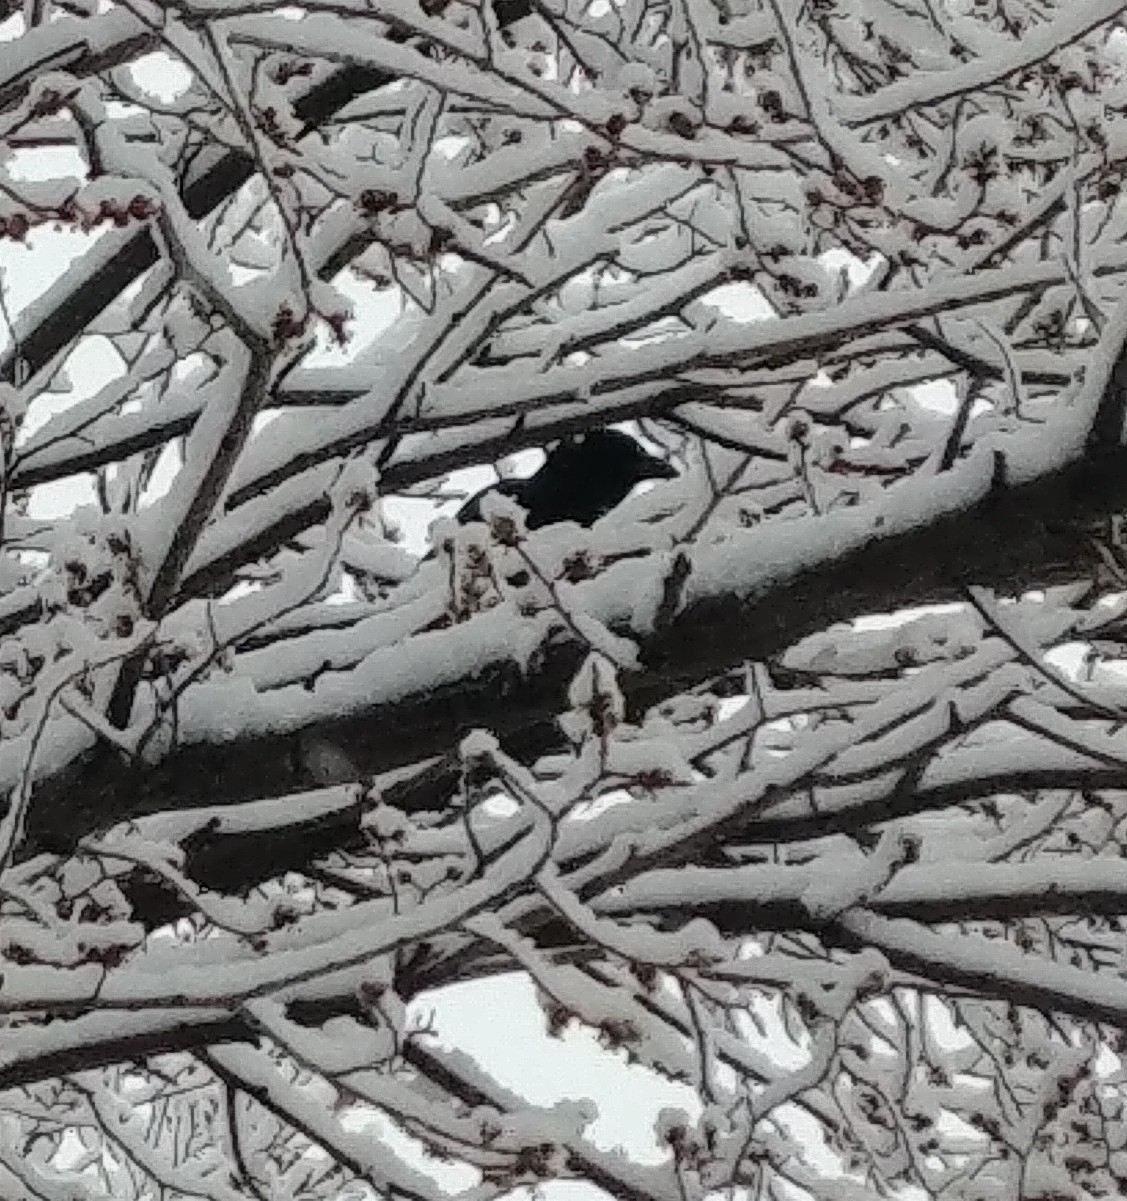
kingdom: Animalia
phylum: Chordata
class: Aves
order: Passeriformes
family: Corvidae
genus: Corvus
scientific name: Corvus brachyrhynchos
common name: American crow
